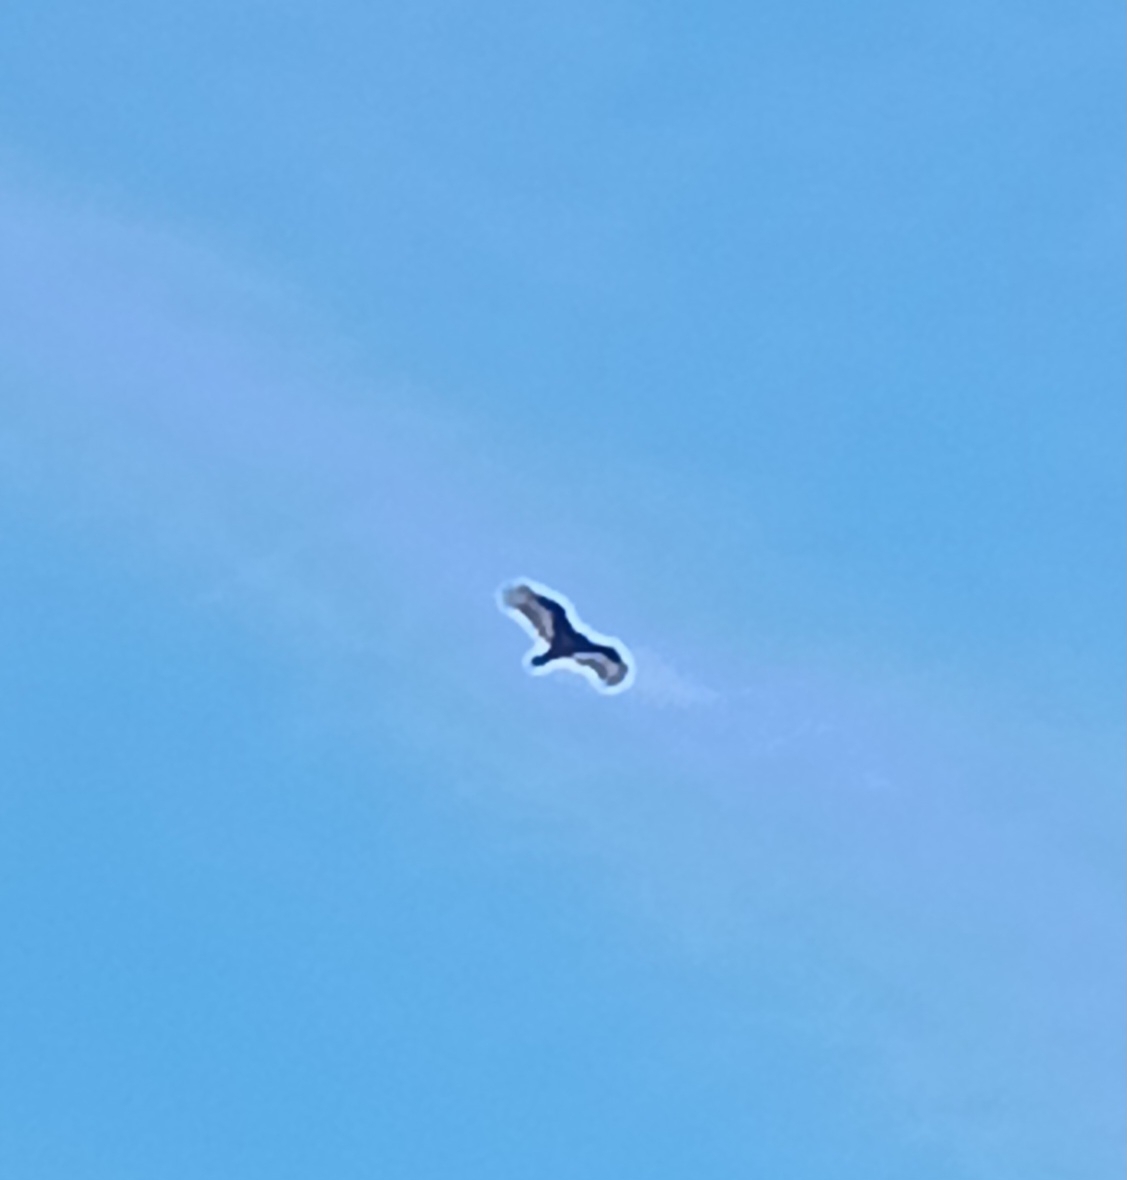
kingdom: Animalia
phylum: Chordata
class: Aves
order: Accipitriformes
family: Cathartidae
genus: Cathartes
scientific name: Cathartes aura
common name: Turkey vulture
